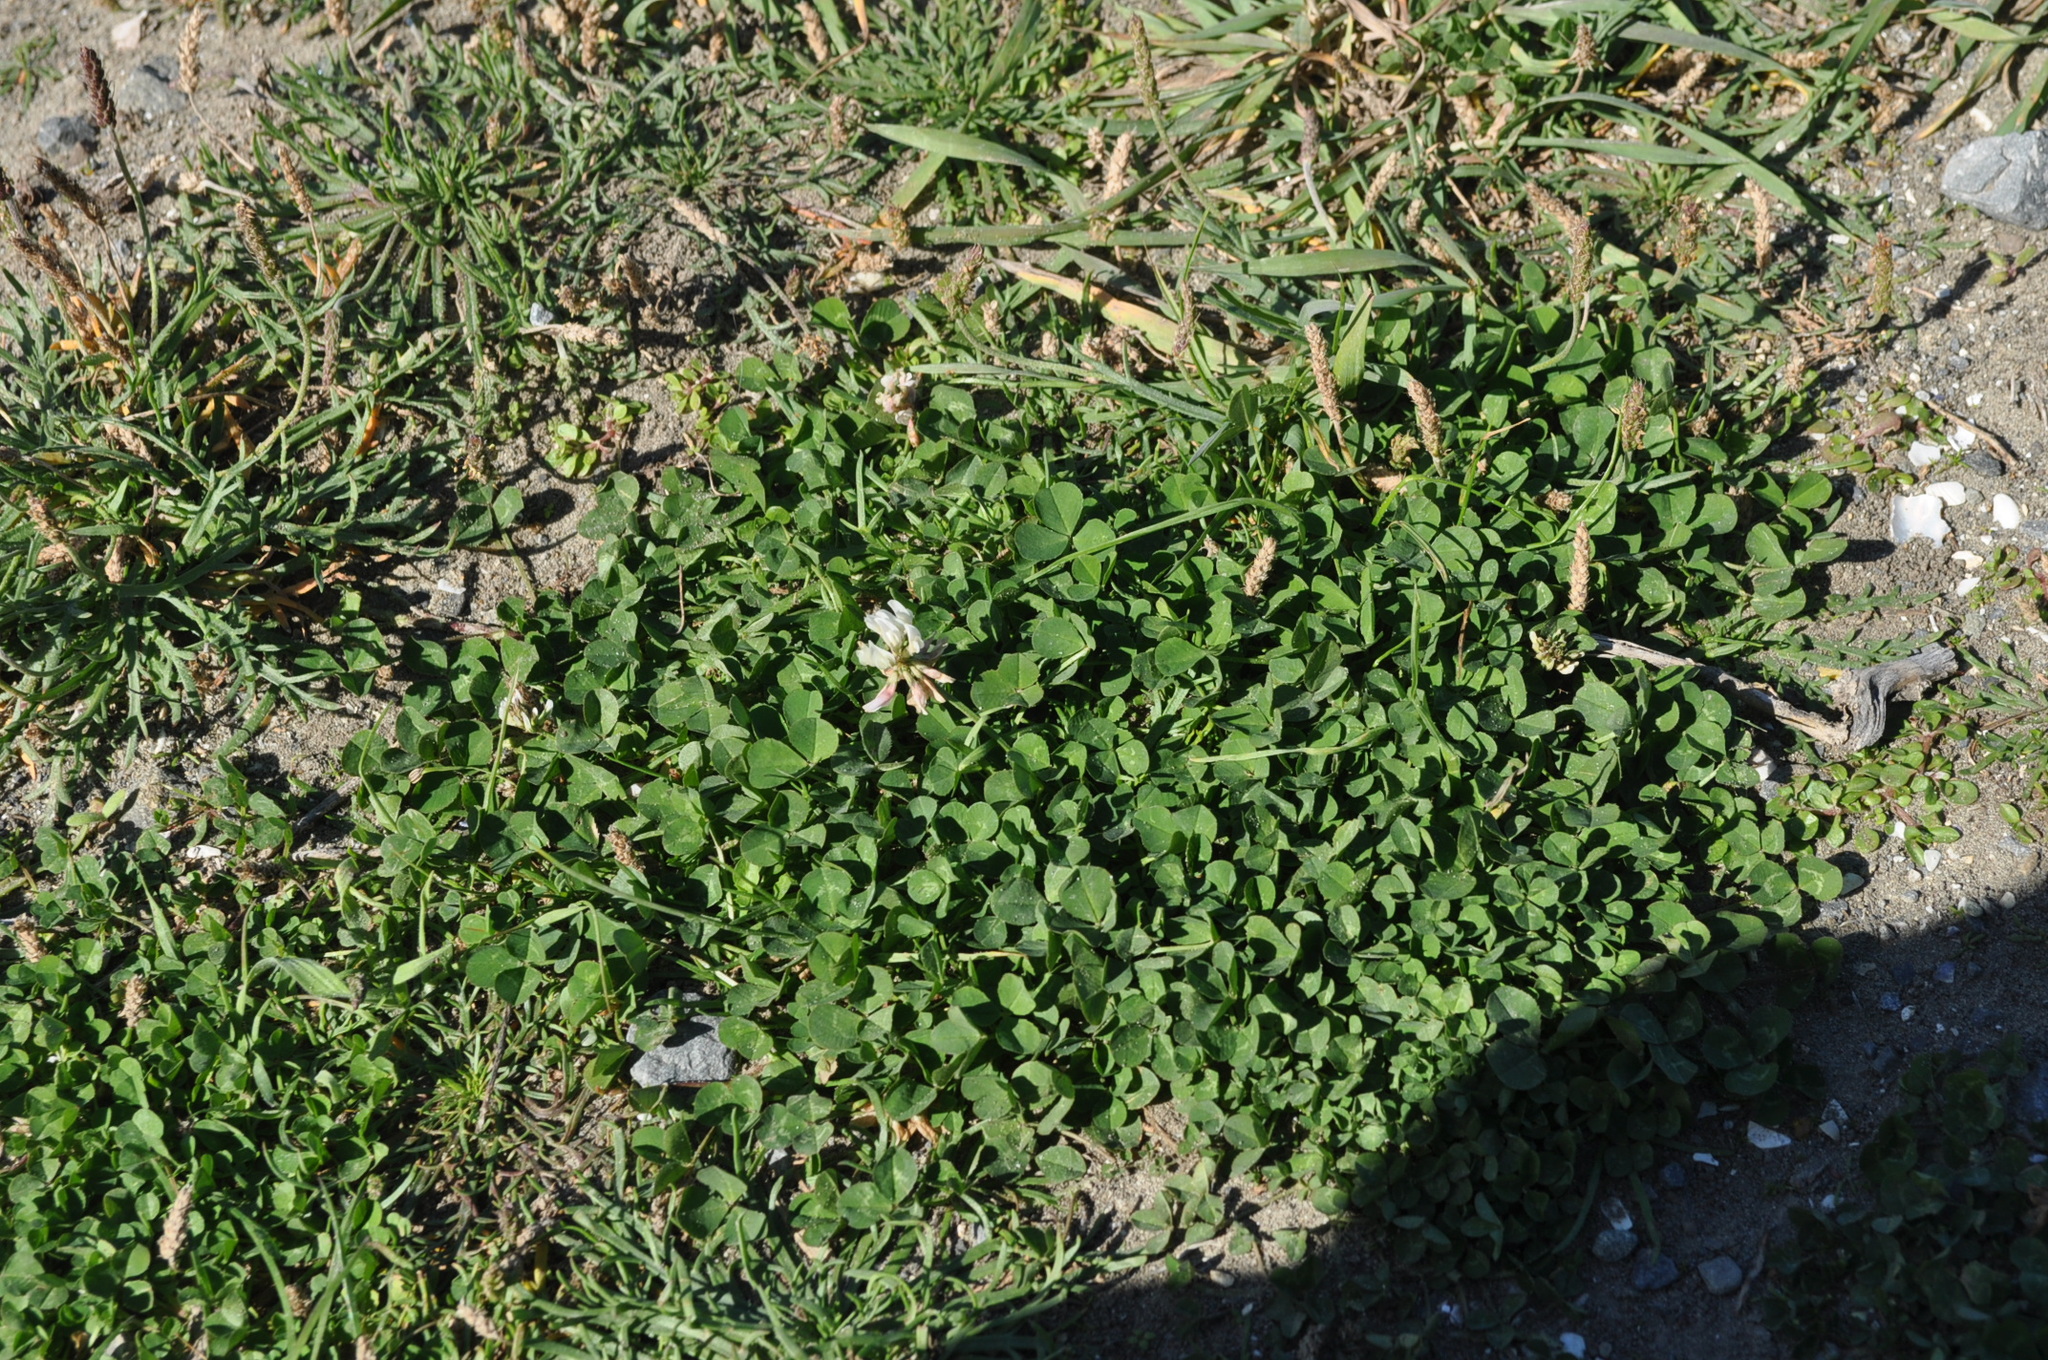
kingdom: Plantae
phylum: Tracheophyta
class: Magnoliopsida
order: Fabales
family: Fabaceae
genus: Trifolium
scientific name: Trifolium repens
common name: White clover
